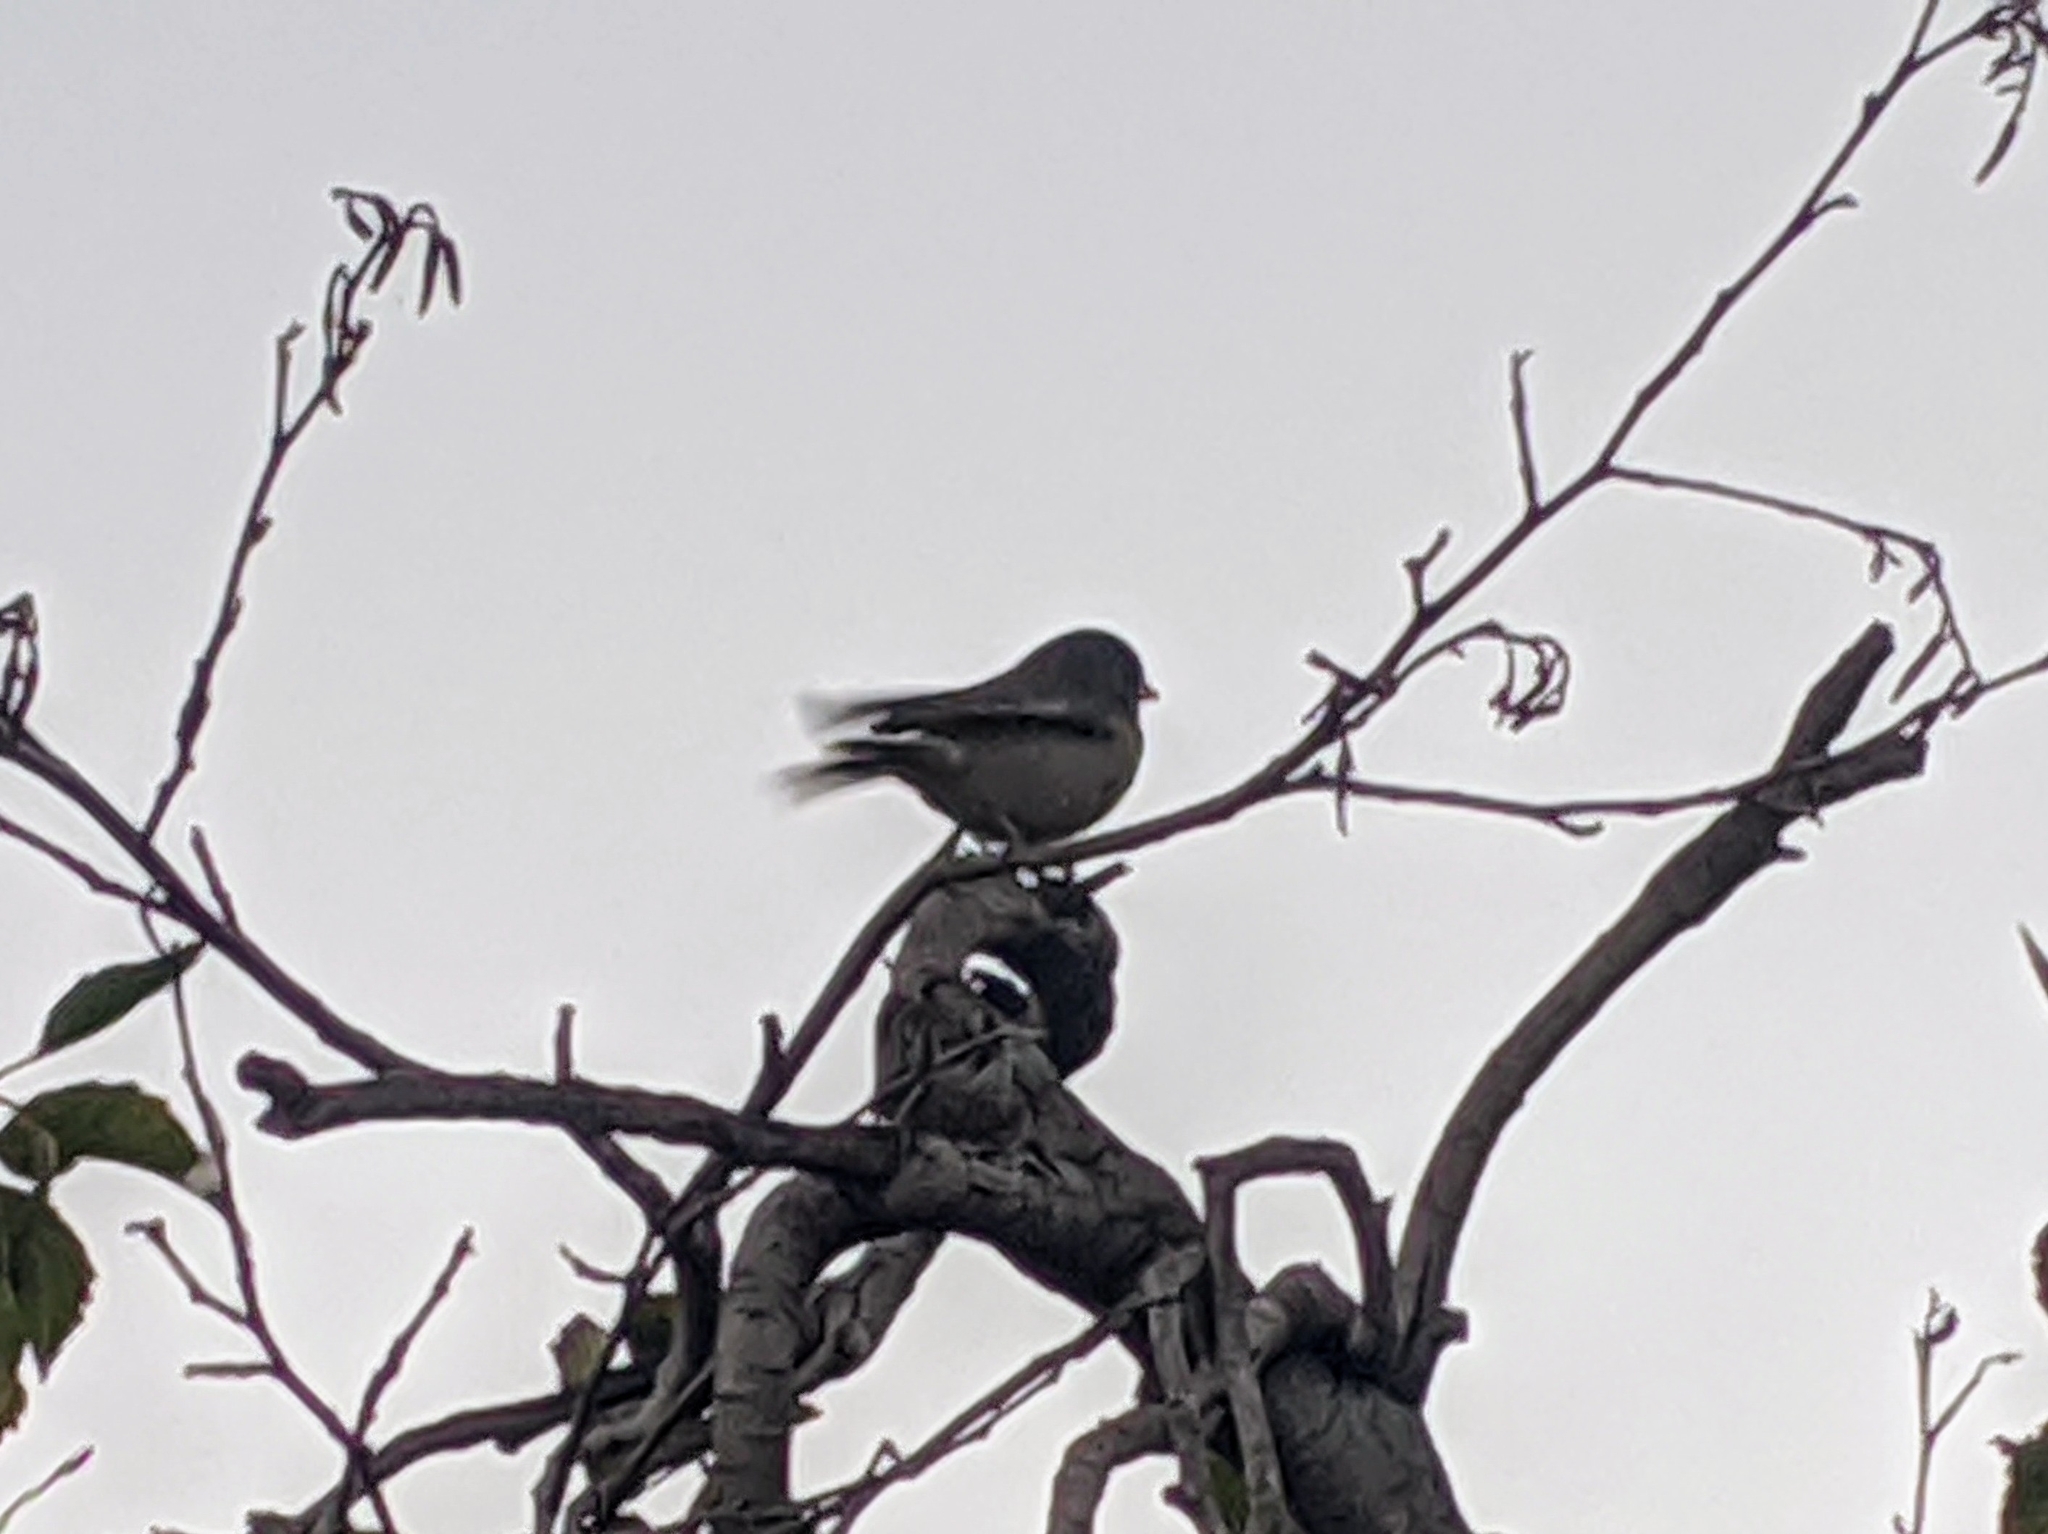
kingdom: Animalia
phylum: Chordata
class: Aves
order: Passeriformes
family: Passerellidae
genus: Junco
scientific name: Junco hyemalis
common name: Dark-eyed junco
